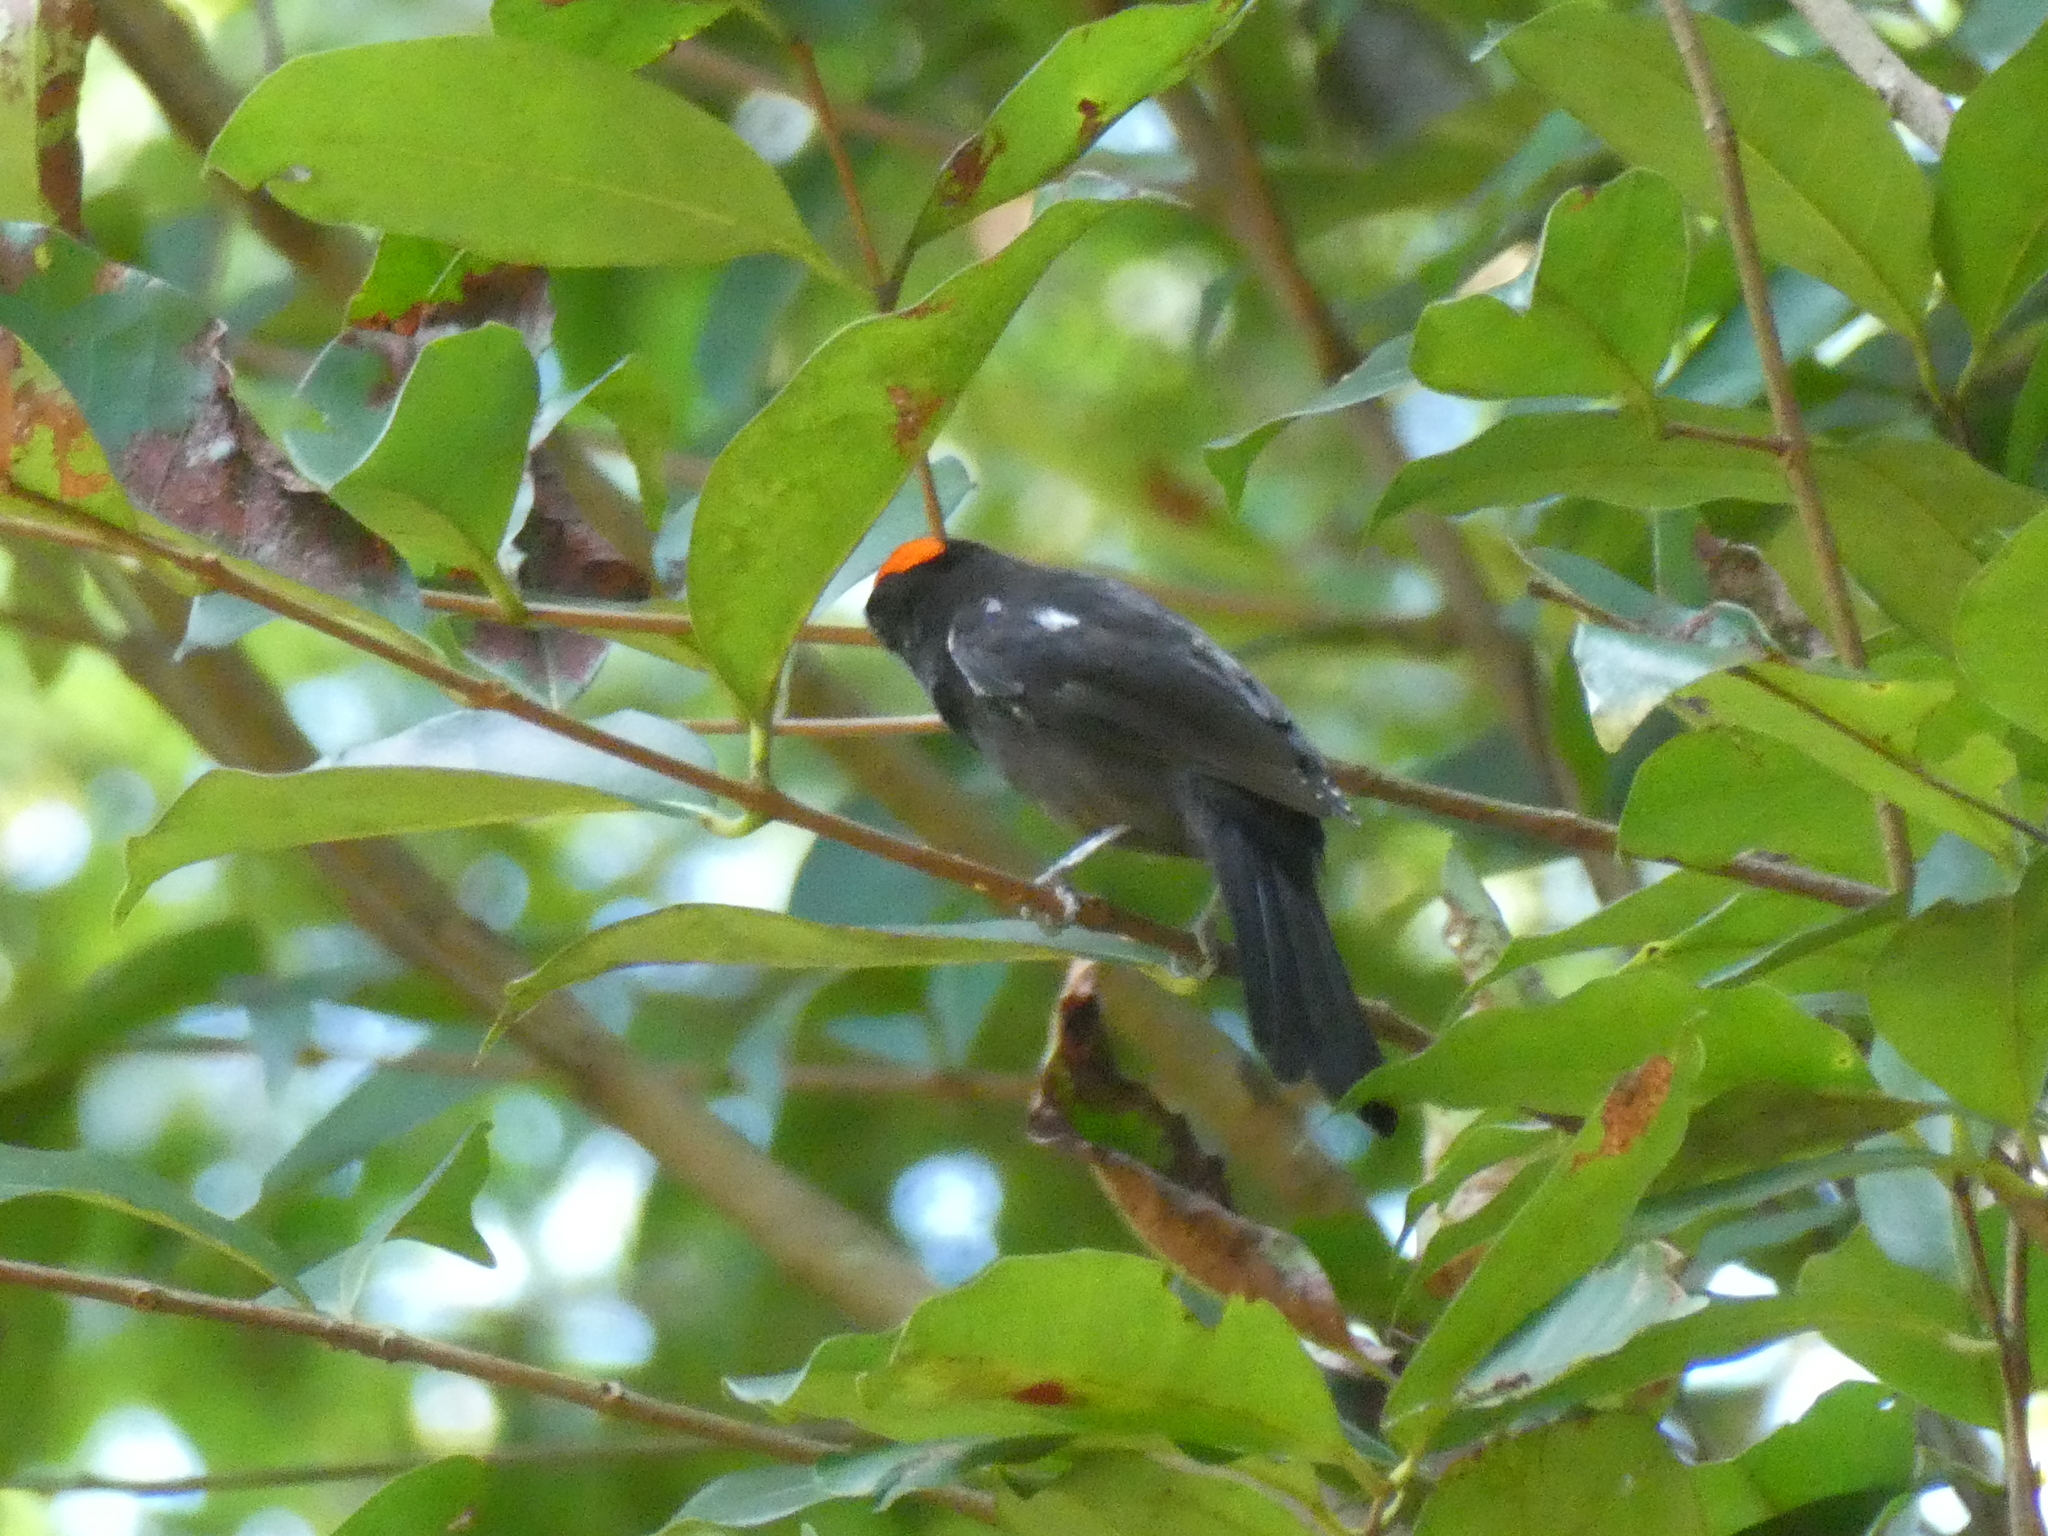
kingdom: Animalia
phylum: Chordata
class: Aves
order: Passeriformes
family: Thraupidae
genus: Loriotus
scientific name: Loriotus cristatus
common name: Flame-crested tanager
